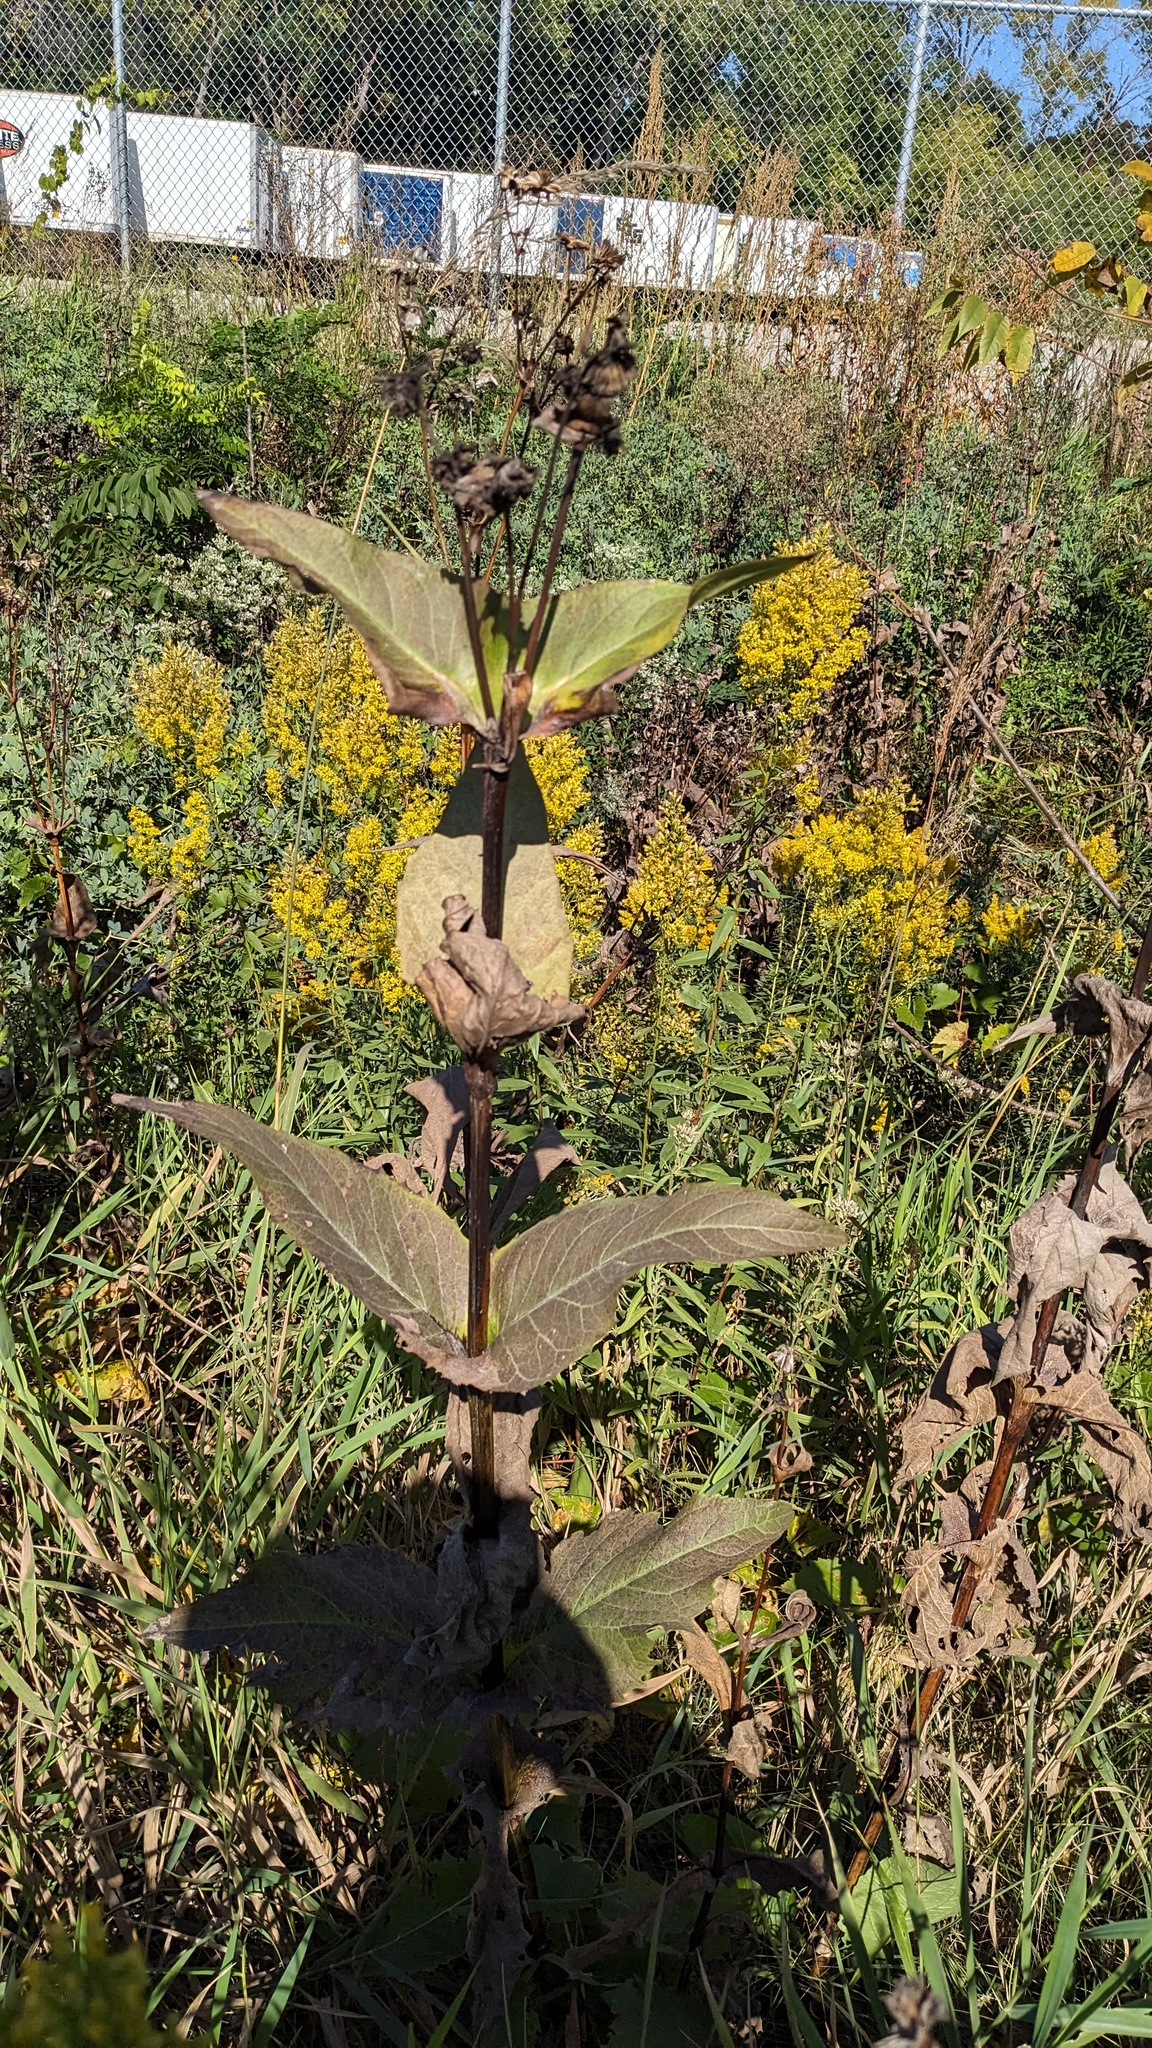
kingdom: Plantae
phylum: Tracheophyta
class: Magnoliopsida
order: Asterales
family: Asteraceae
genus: Silphium
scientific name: Silphium perfoliatum
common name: Cup-plant
